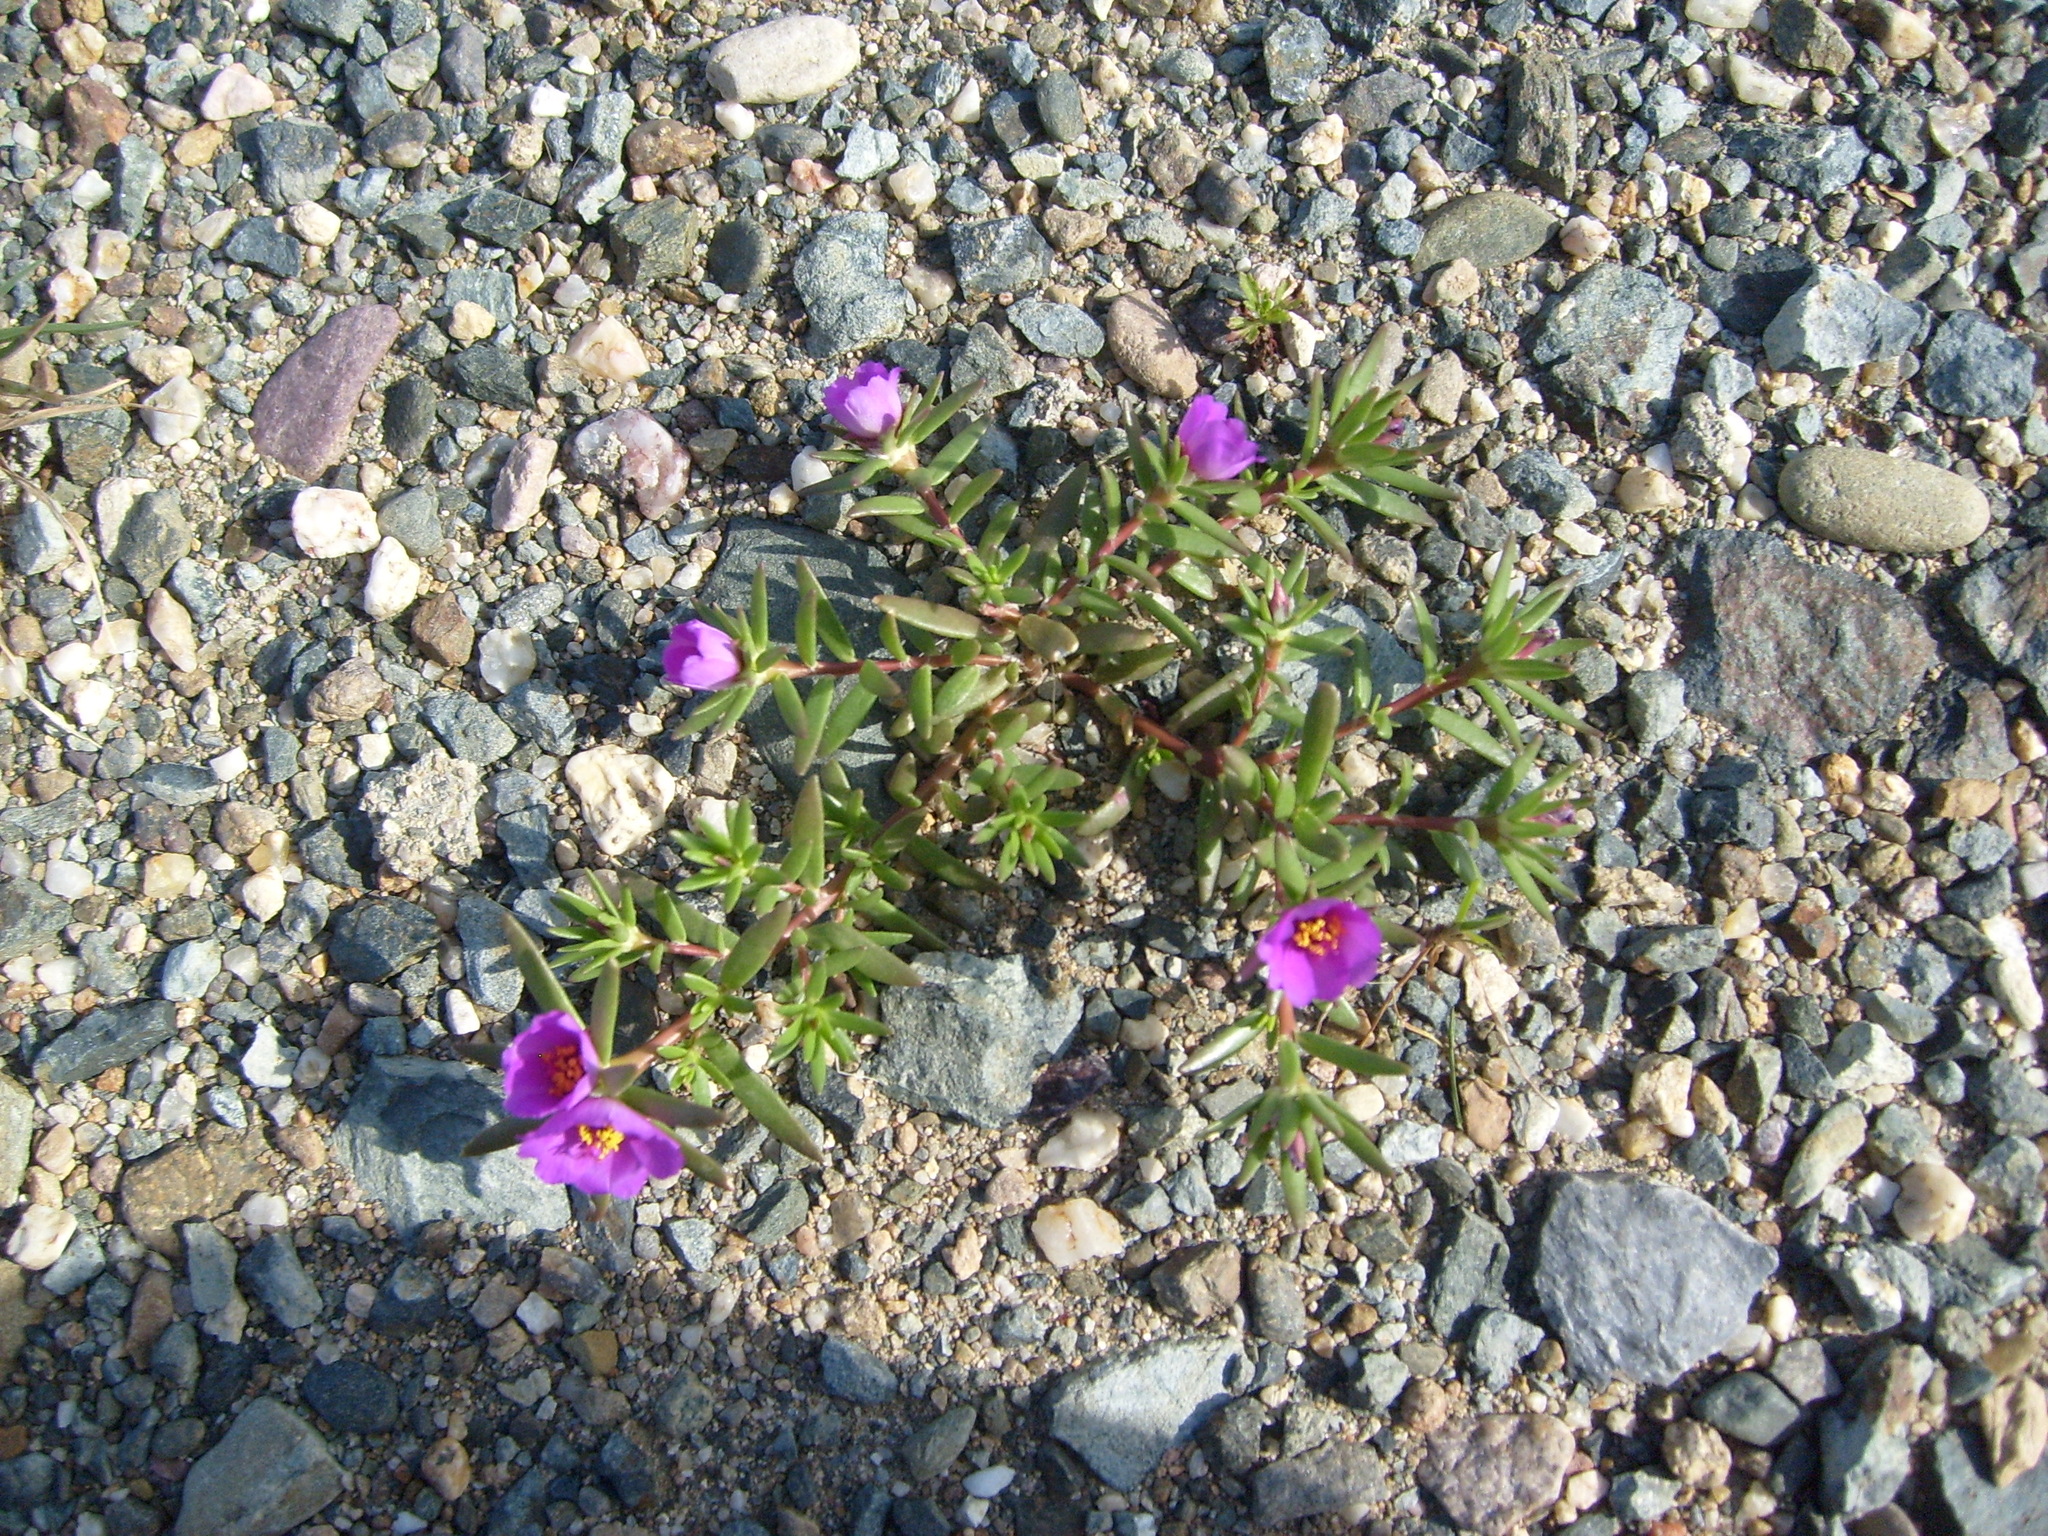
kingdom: Plantae
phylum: Tracheophyta
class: Magnoliopsida
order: Caryophyllales
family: Portulacaceae
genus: Portulaca
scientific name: Portulaca pilosa
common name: Kiss me quick
